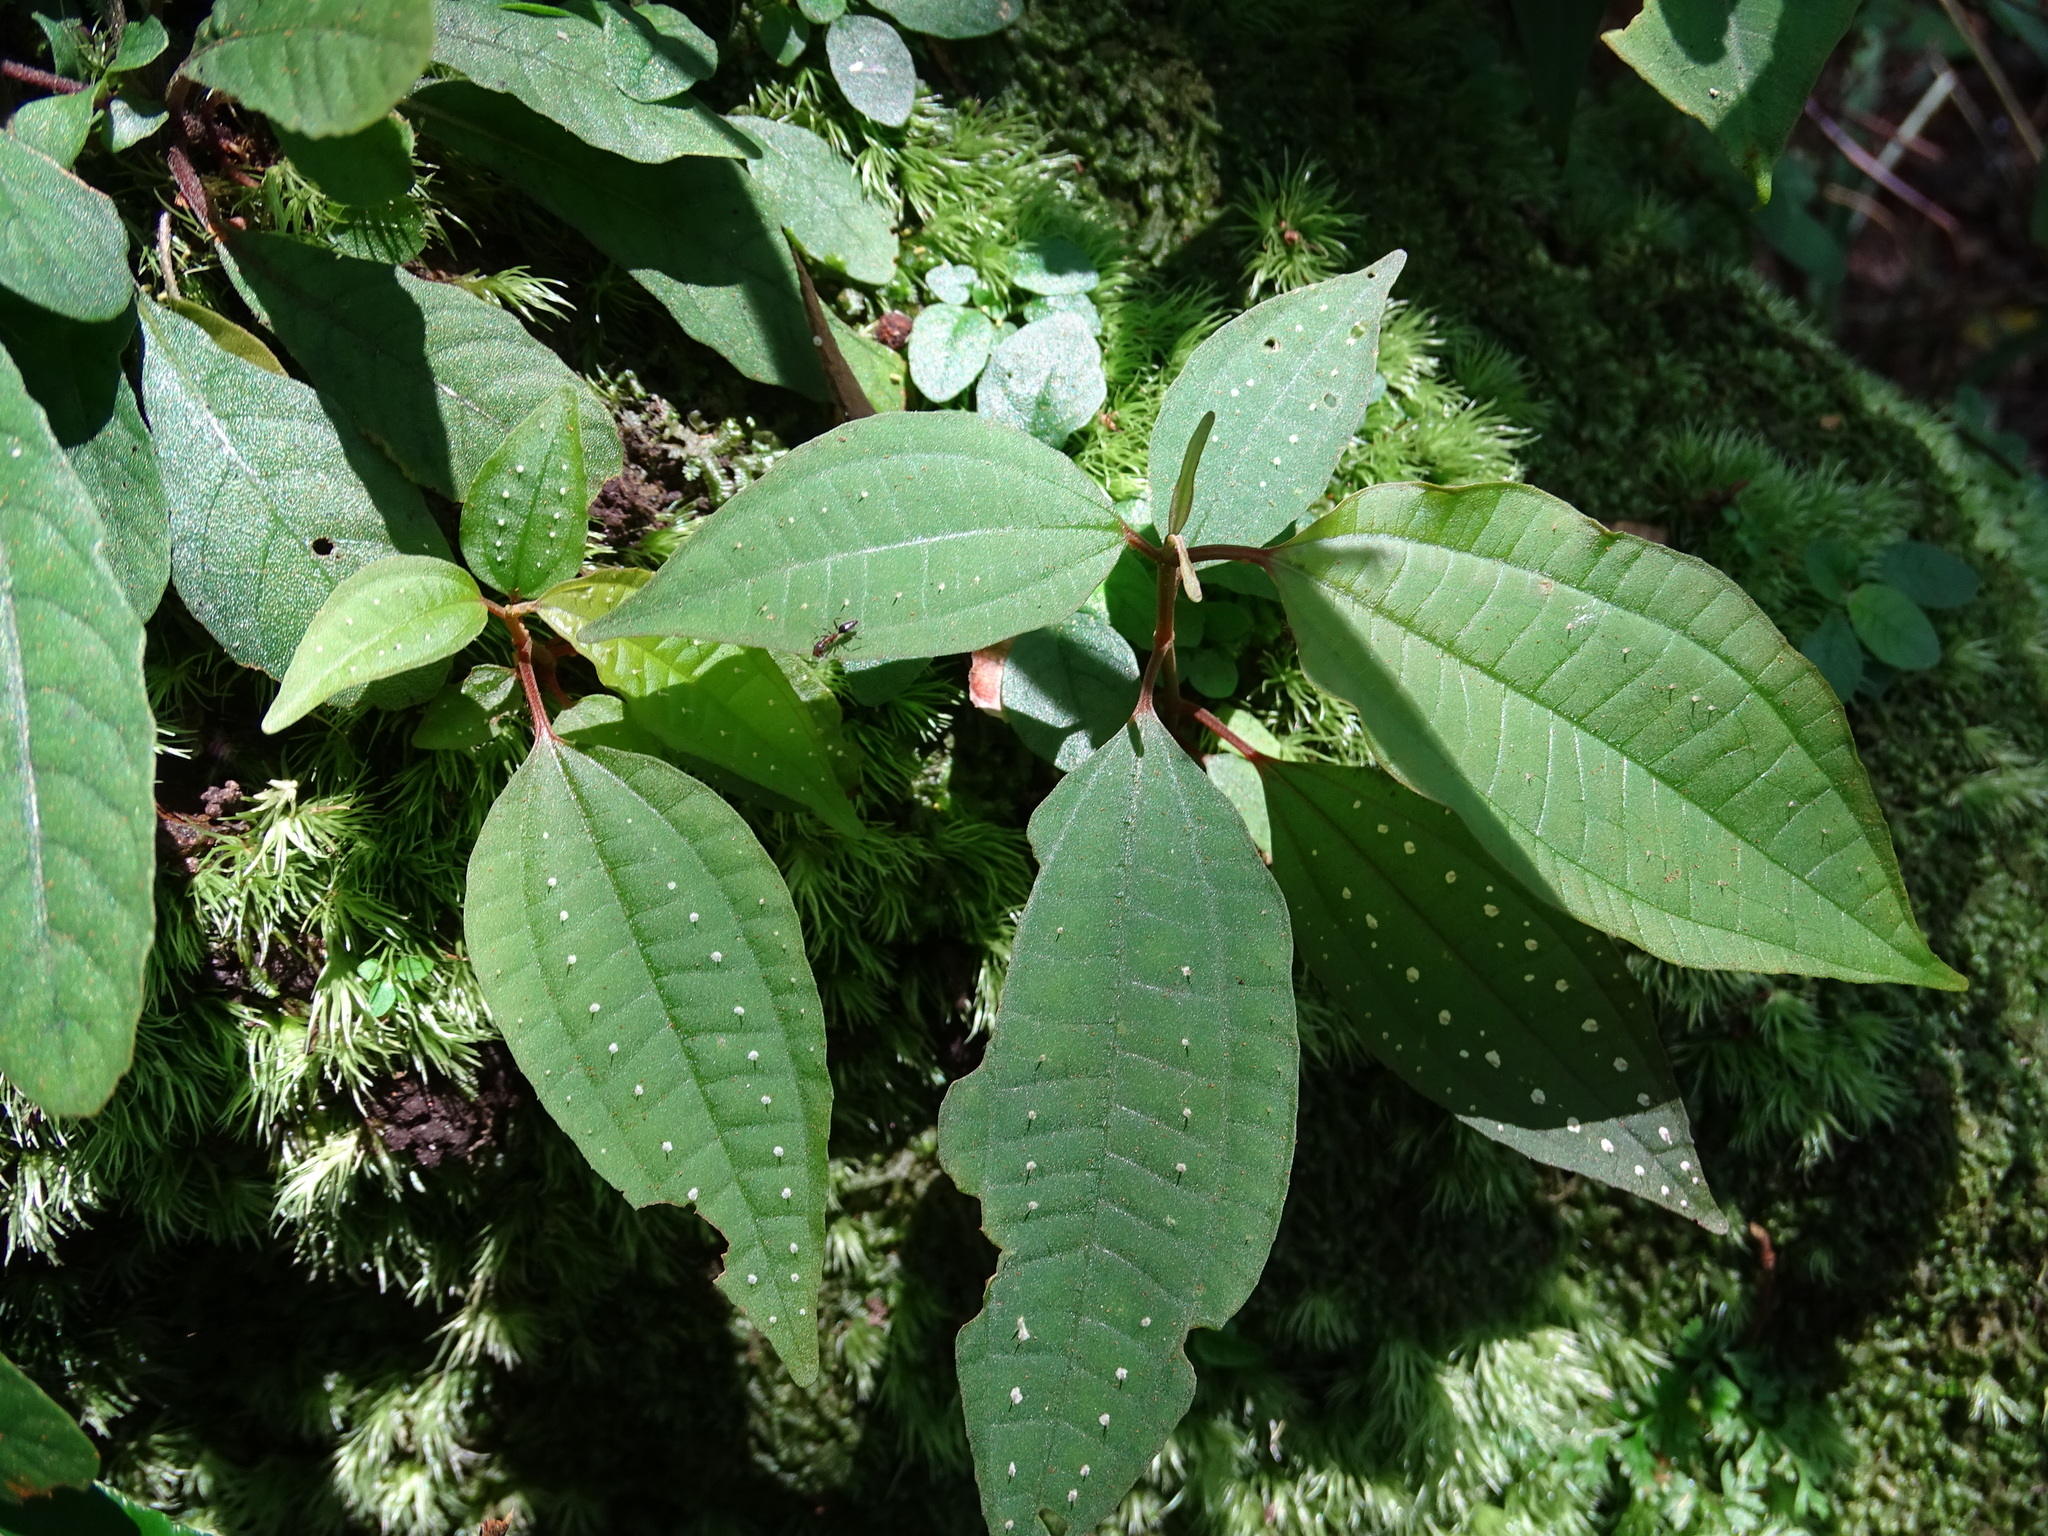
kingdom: Plantae
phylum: Tracheophyta
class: Magnoliopsida
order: Myrtales
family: Melastomataceae
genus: Blastus
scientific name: Blastus cochinchinensis
